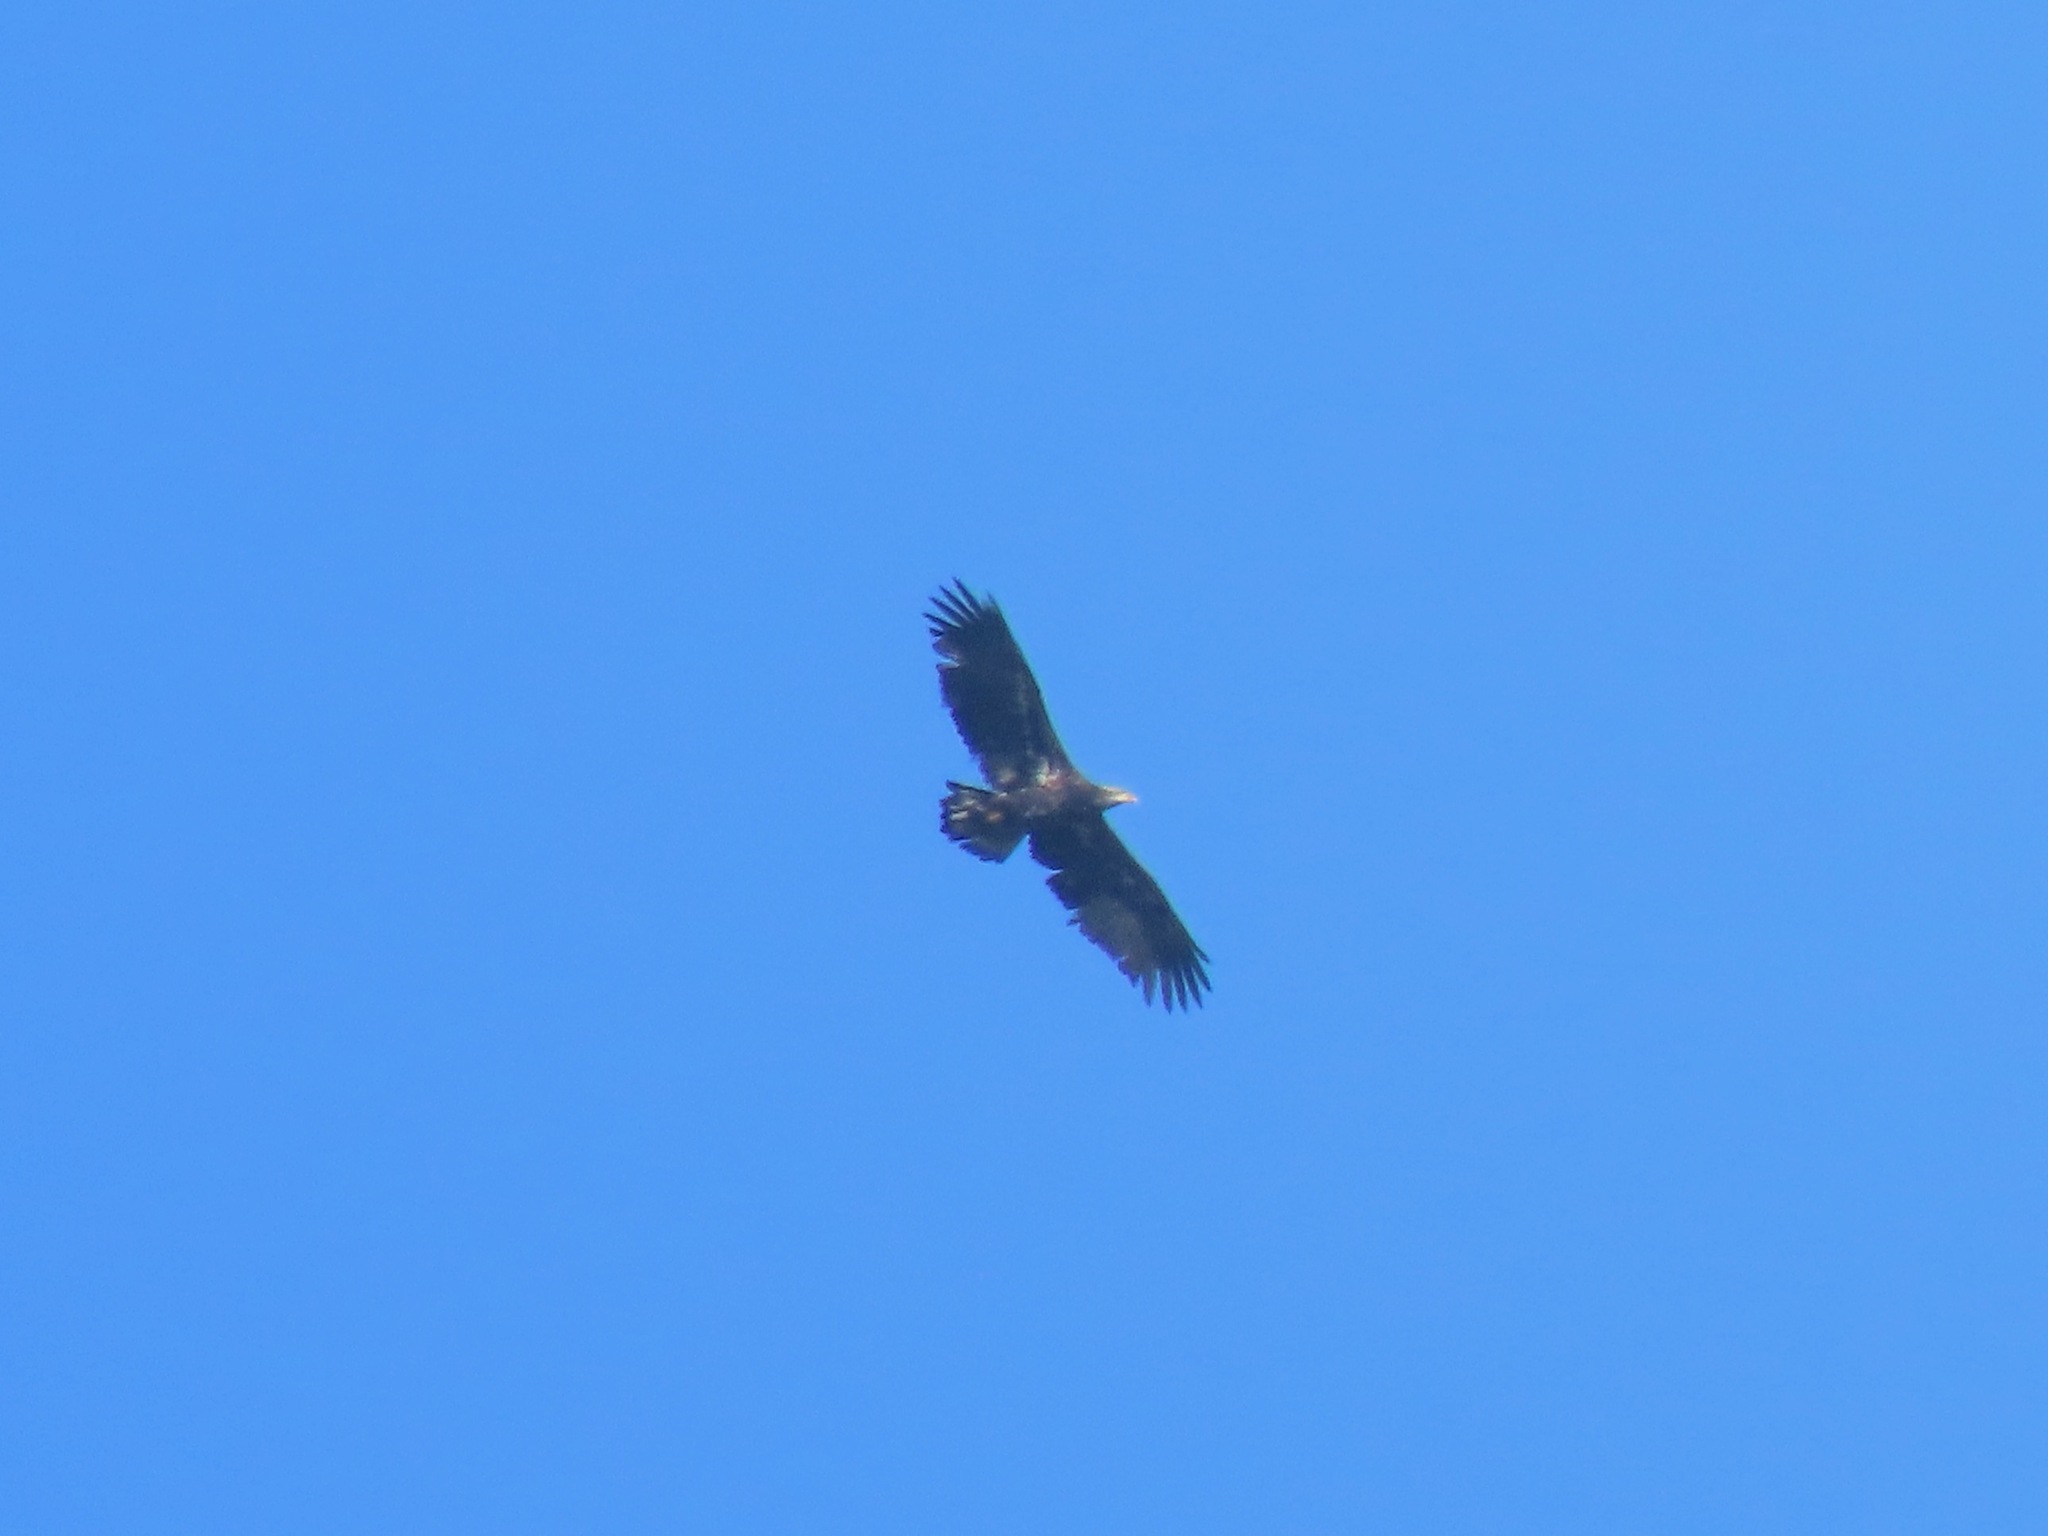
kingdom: Animalia
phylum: Chordata
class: Aves
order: Accipitriformes
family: Accipitridae
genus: Haliaeetus
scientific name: Haliaeetus leucocephalus
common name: Bald eagle
